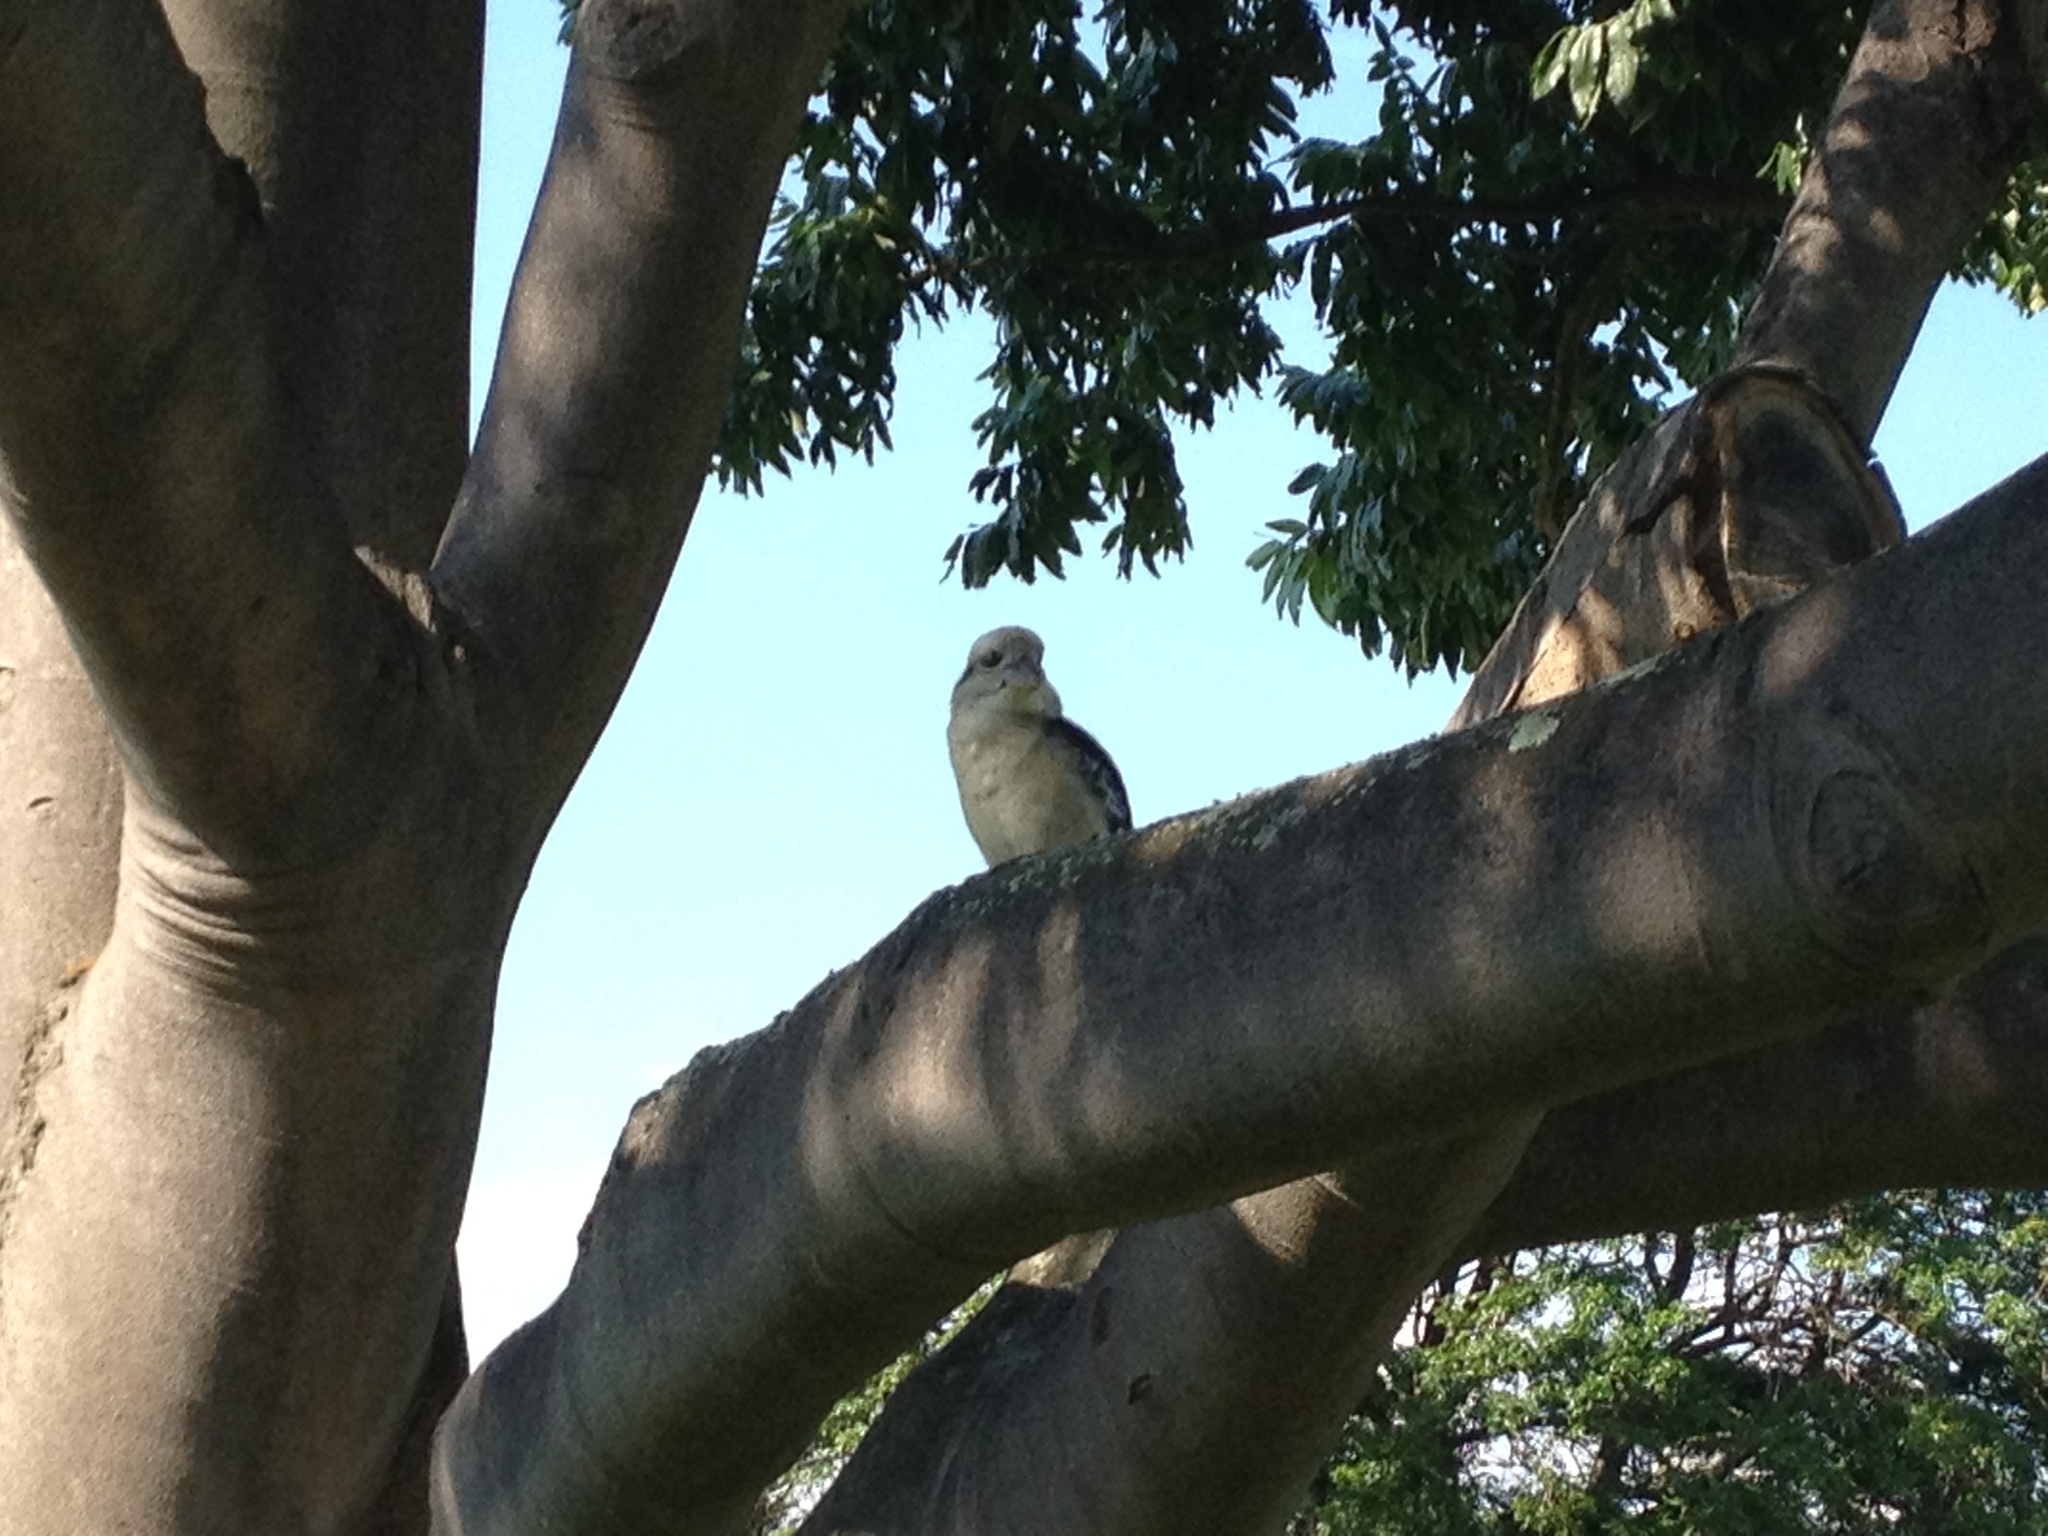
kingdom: Animalia
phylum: Chordata
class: Aves
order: Coraciiformes
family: Alcedinidae
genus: Dacelo
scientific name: Dacelo novaeguineae
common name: Laughing kookaburra
